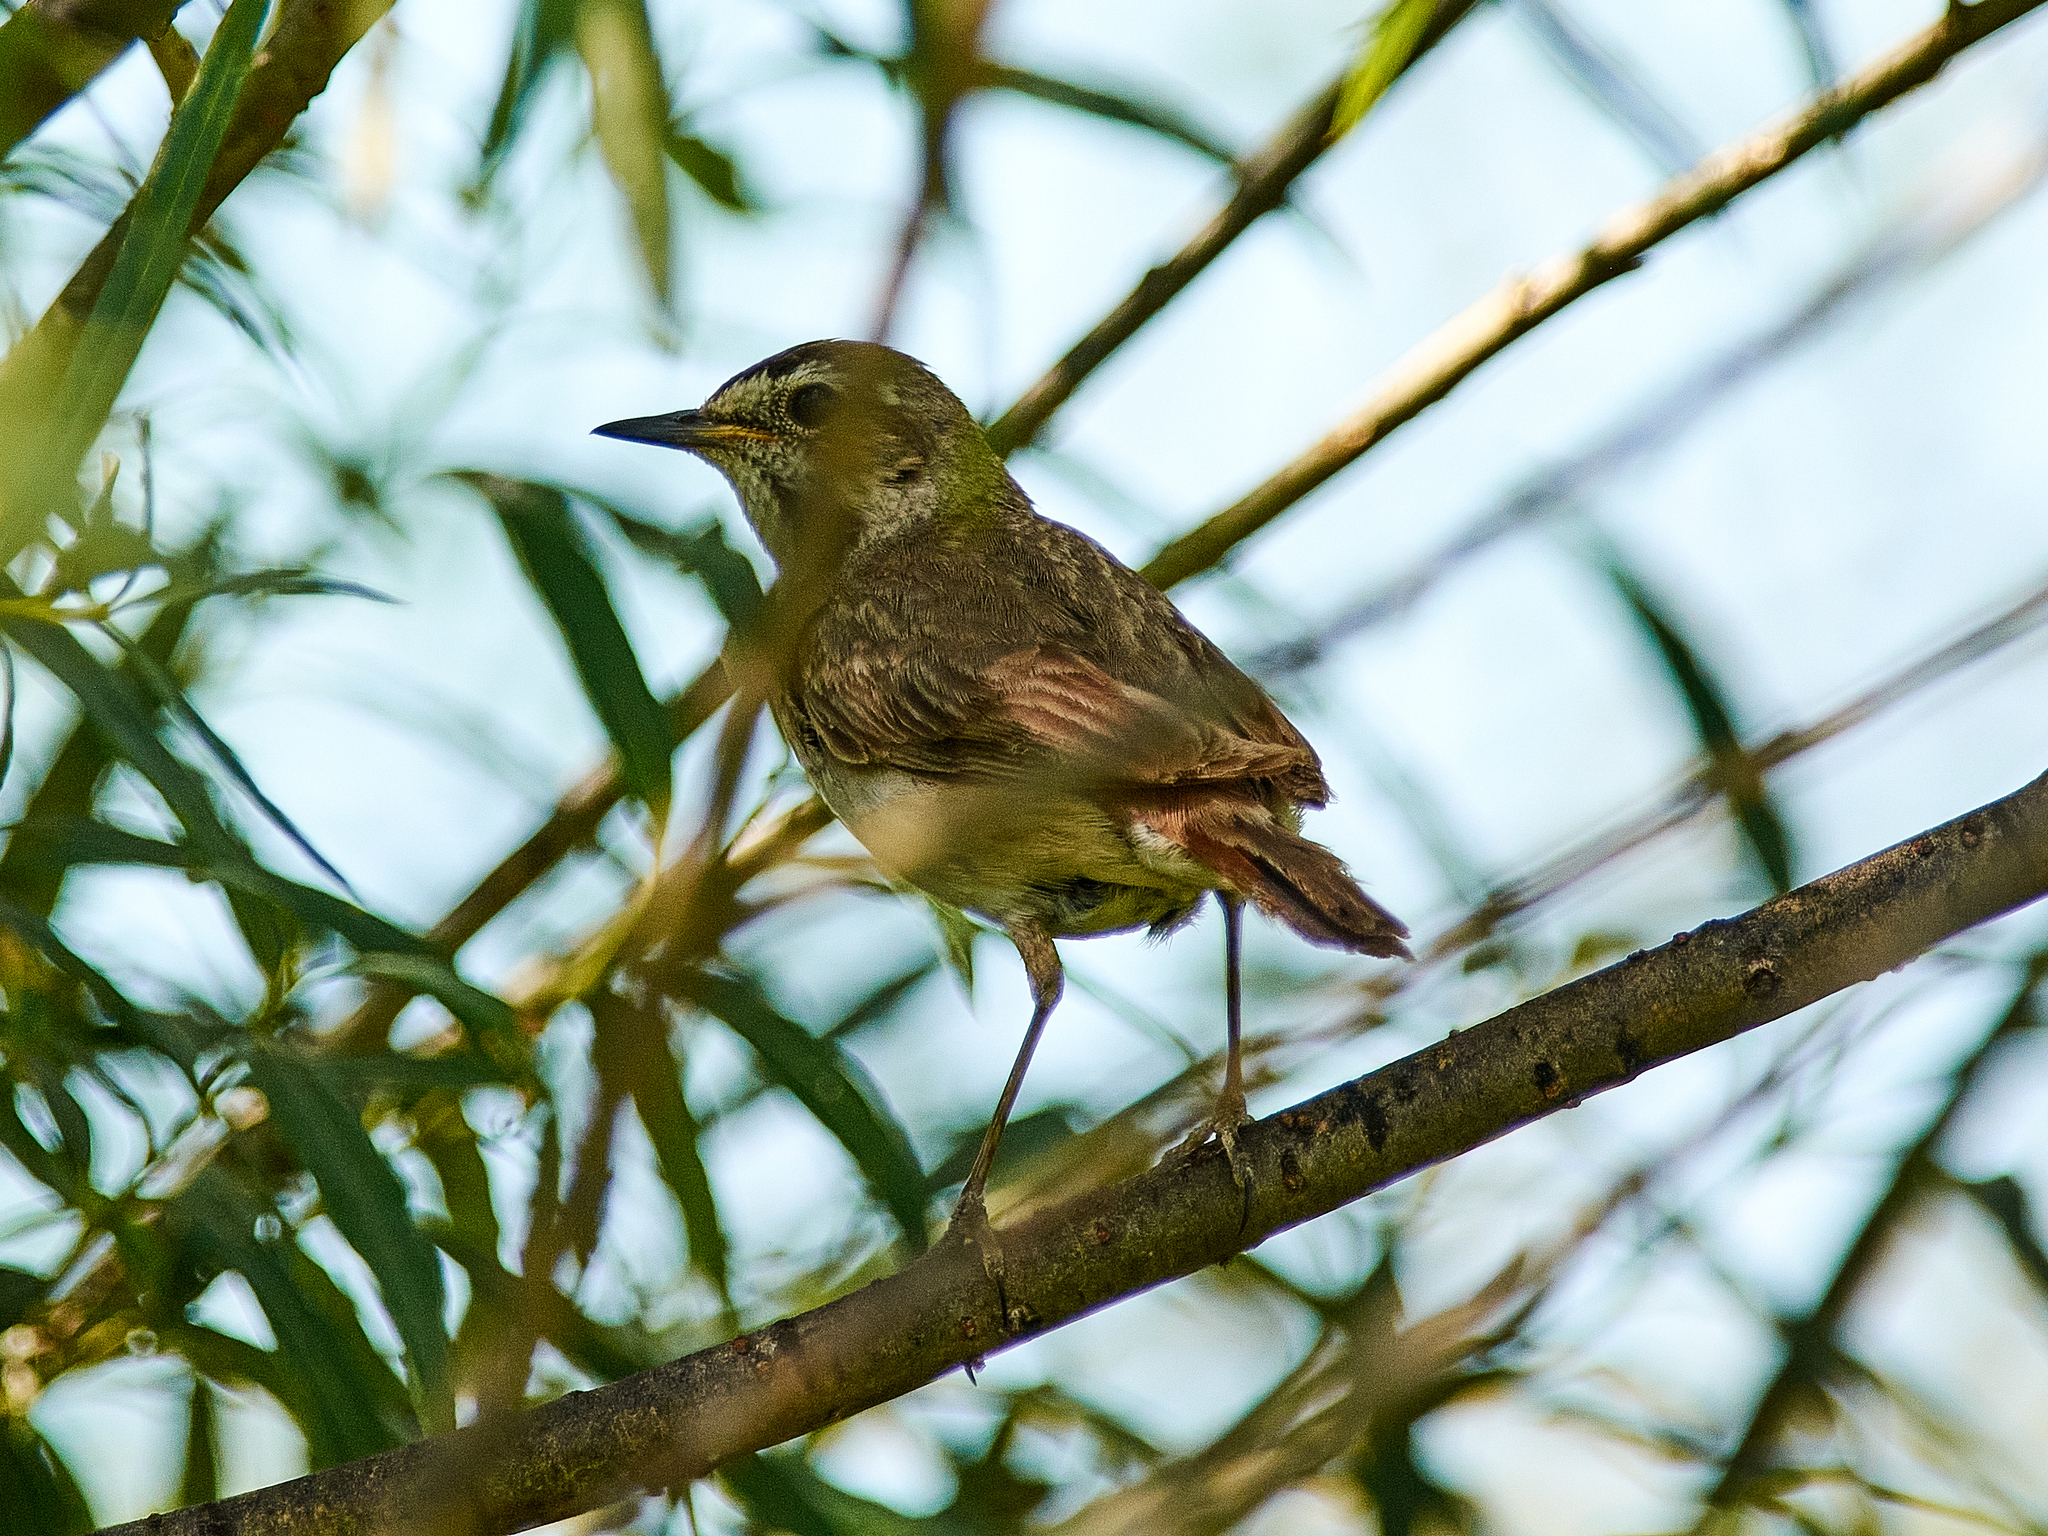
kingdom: Animalia
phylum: Chordata
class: Aves
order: Passeriformes
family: Muscicapidae
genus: Luscinia
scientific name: Luscinia svecica
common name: Bluethroat
